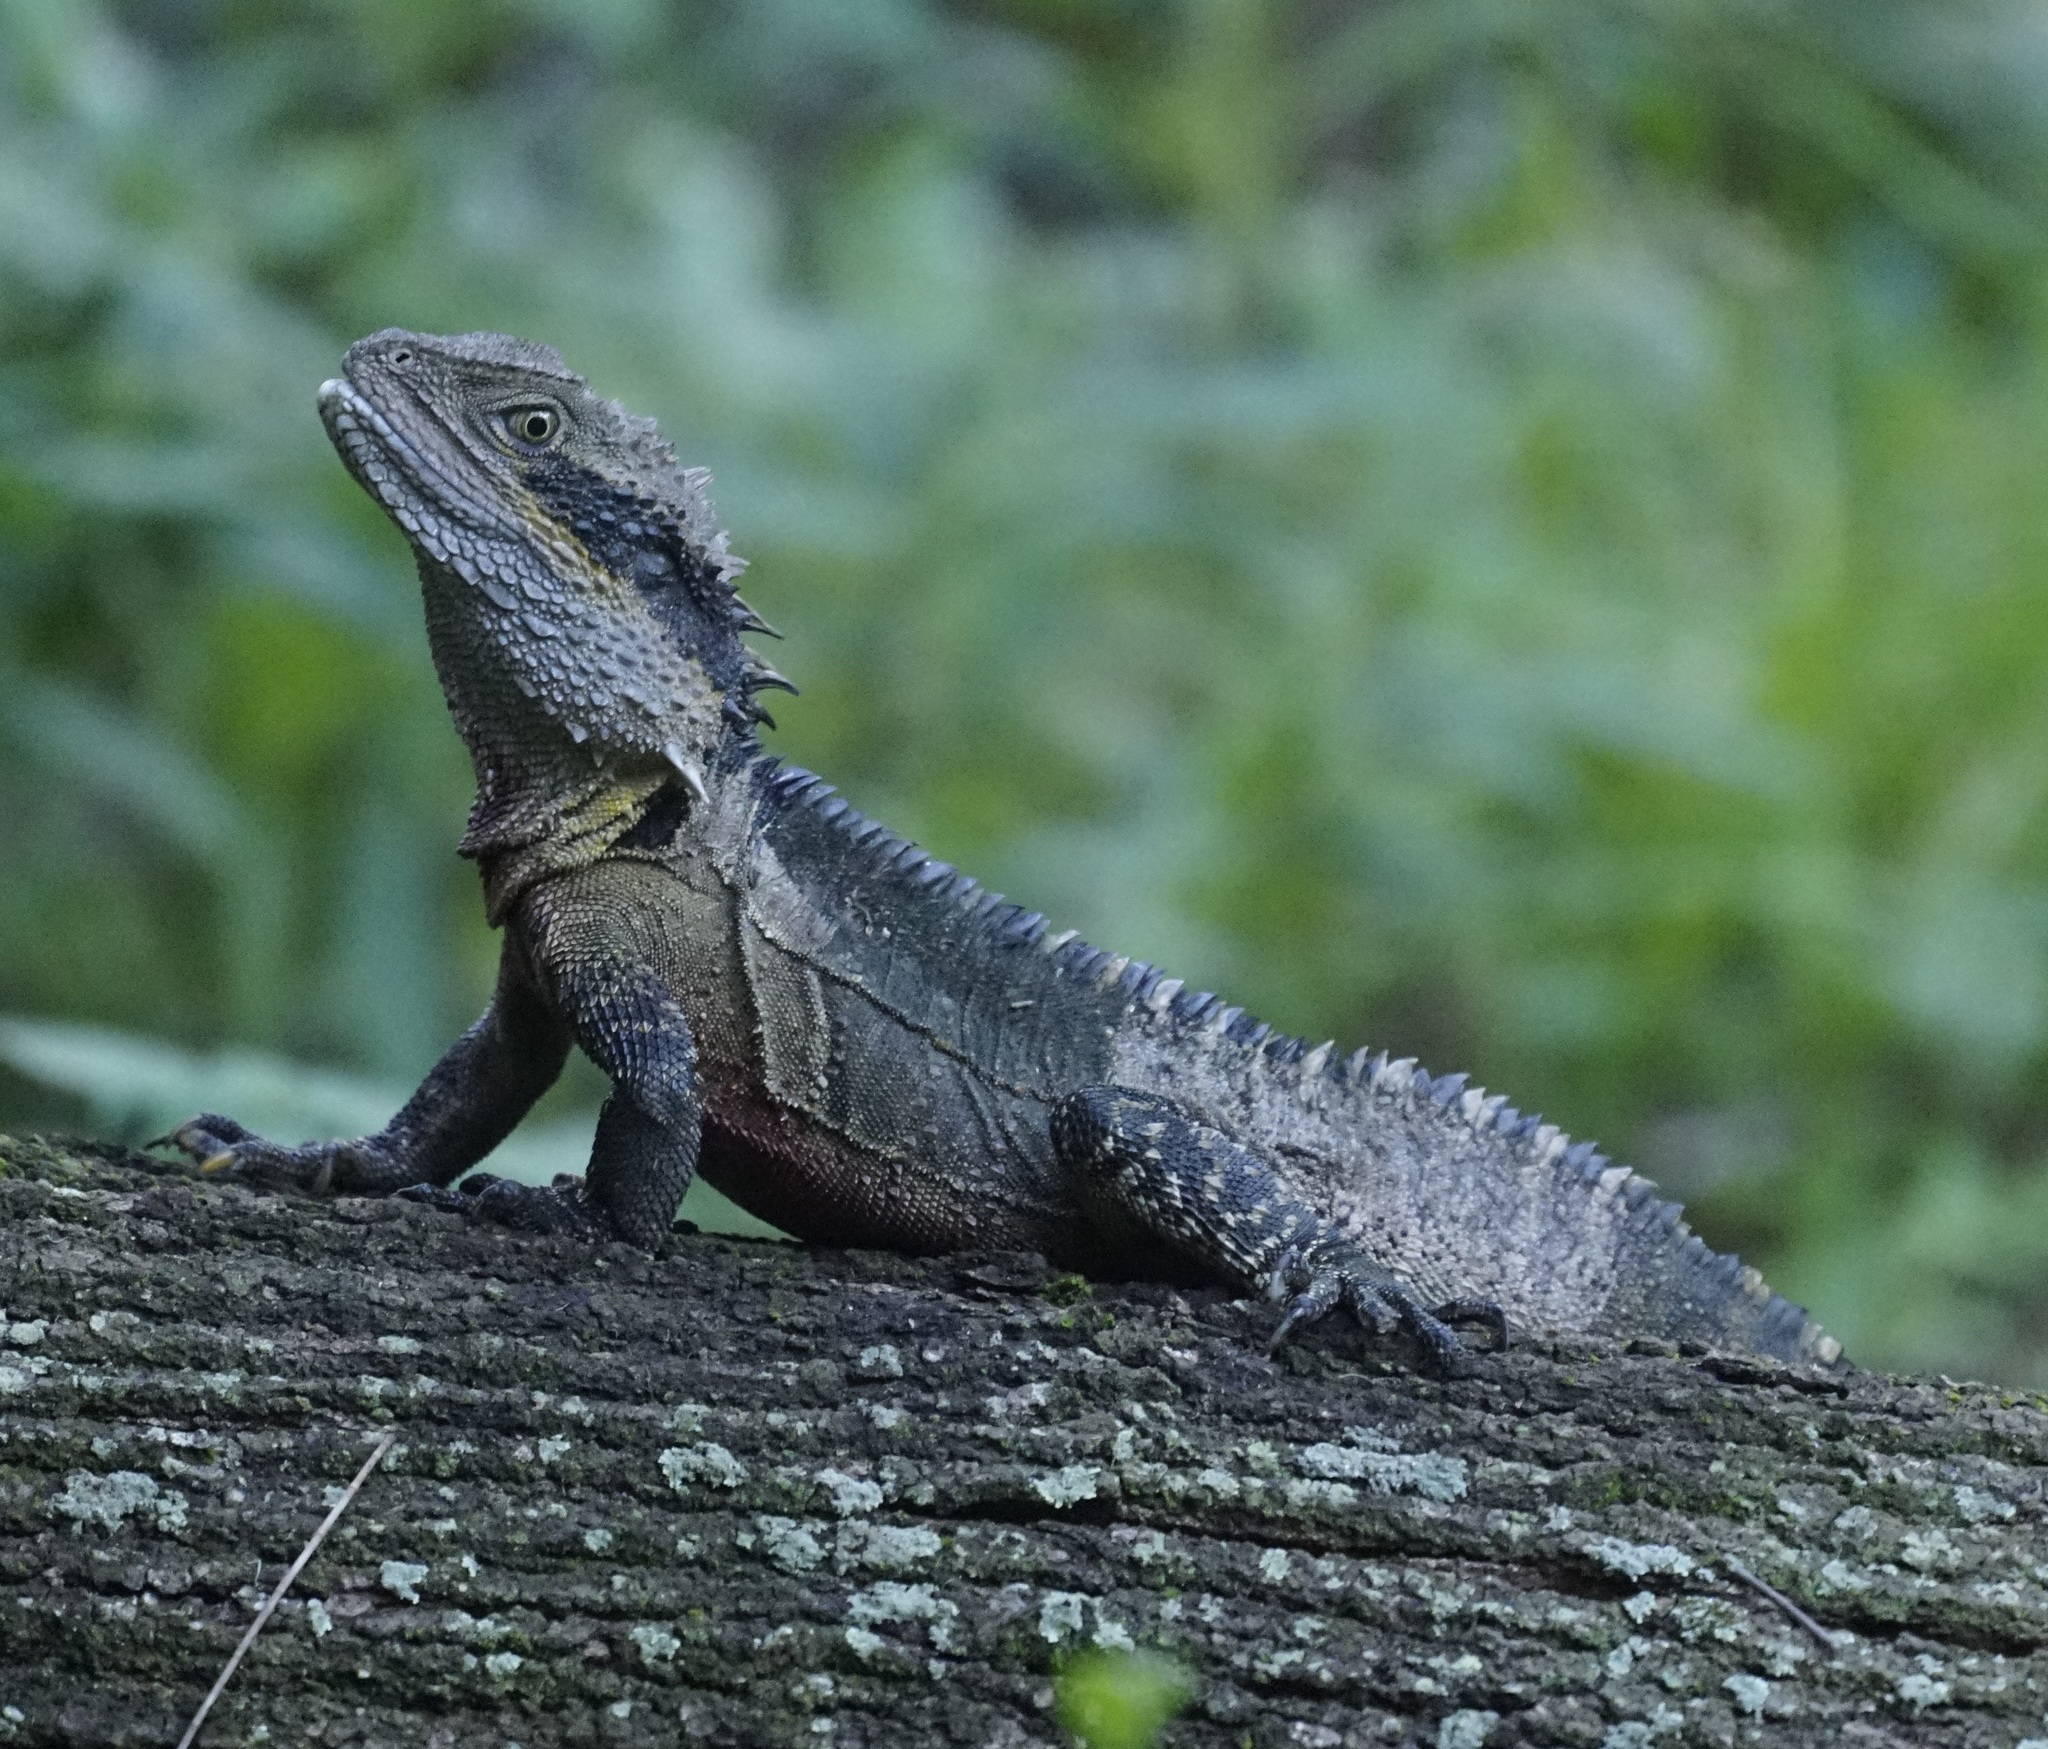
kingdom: Animalia
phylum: Chordata
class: Squamata
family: Agamidae
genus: Intellagama
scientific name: Intellagama lesueurii
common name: Eastern water dragon
